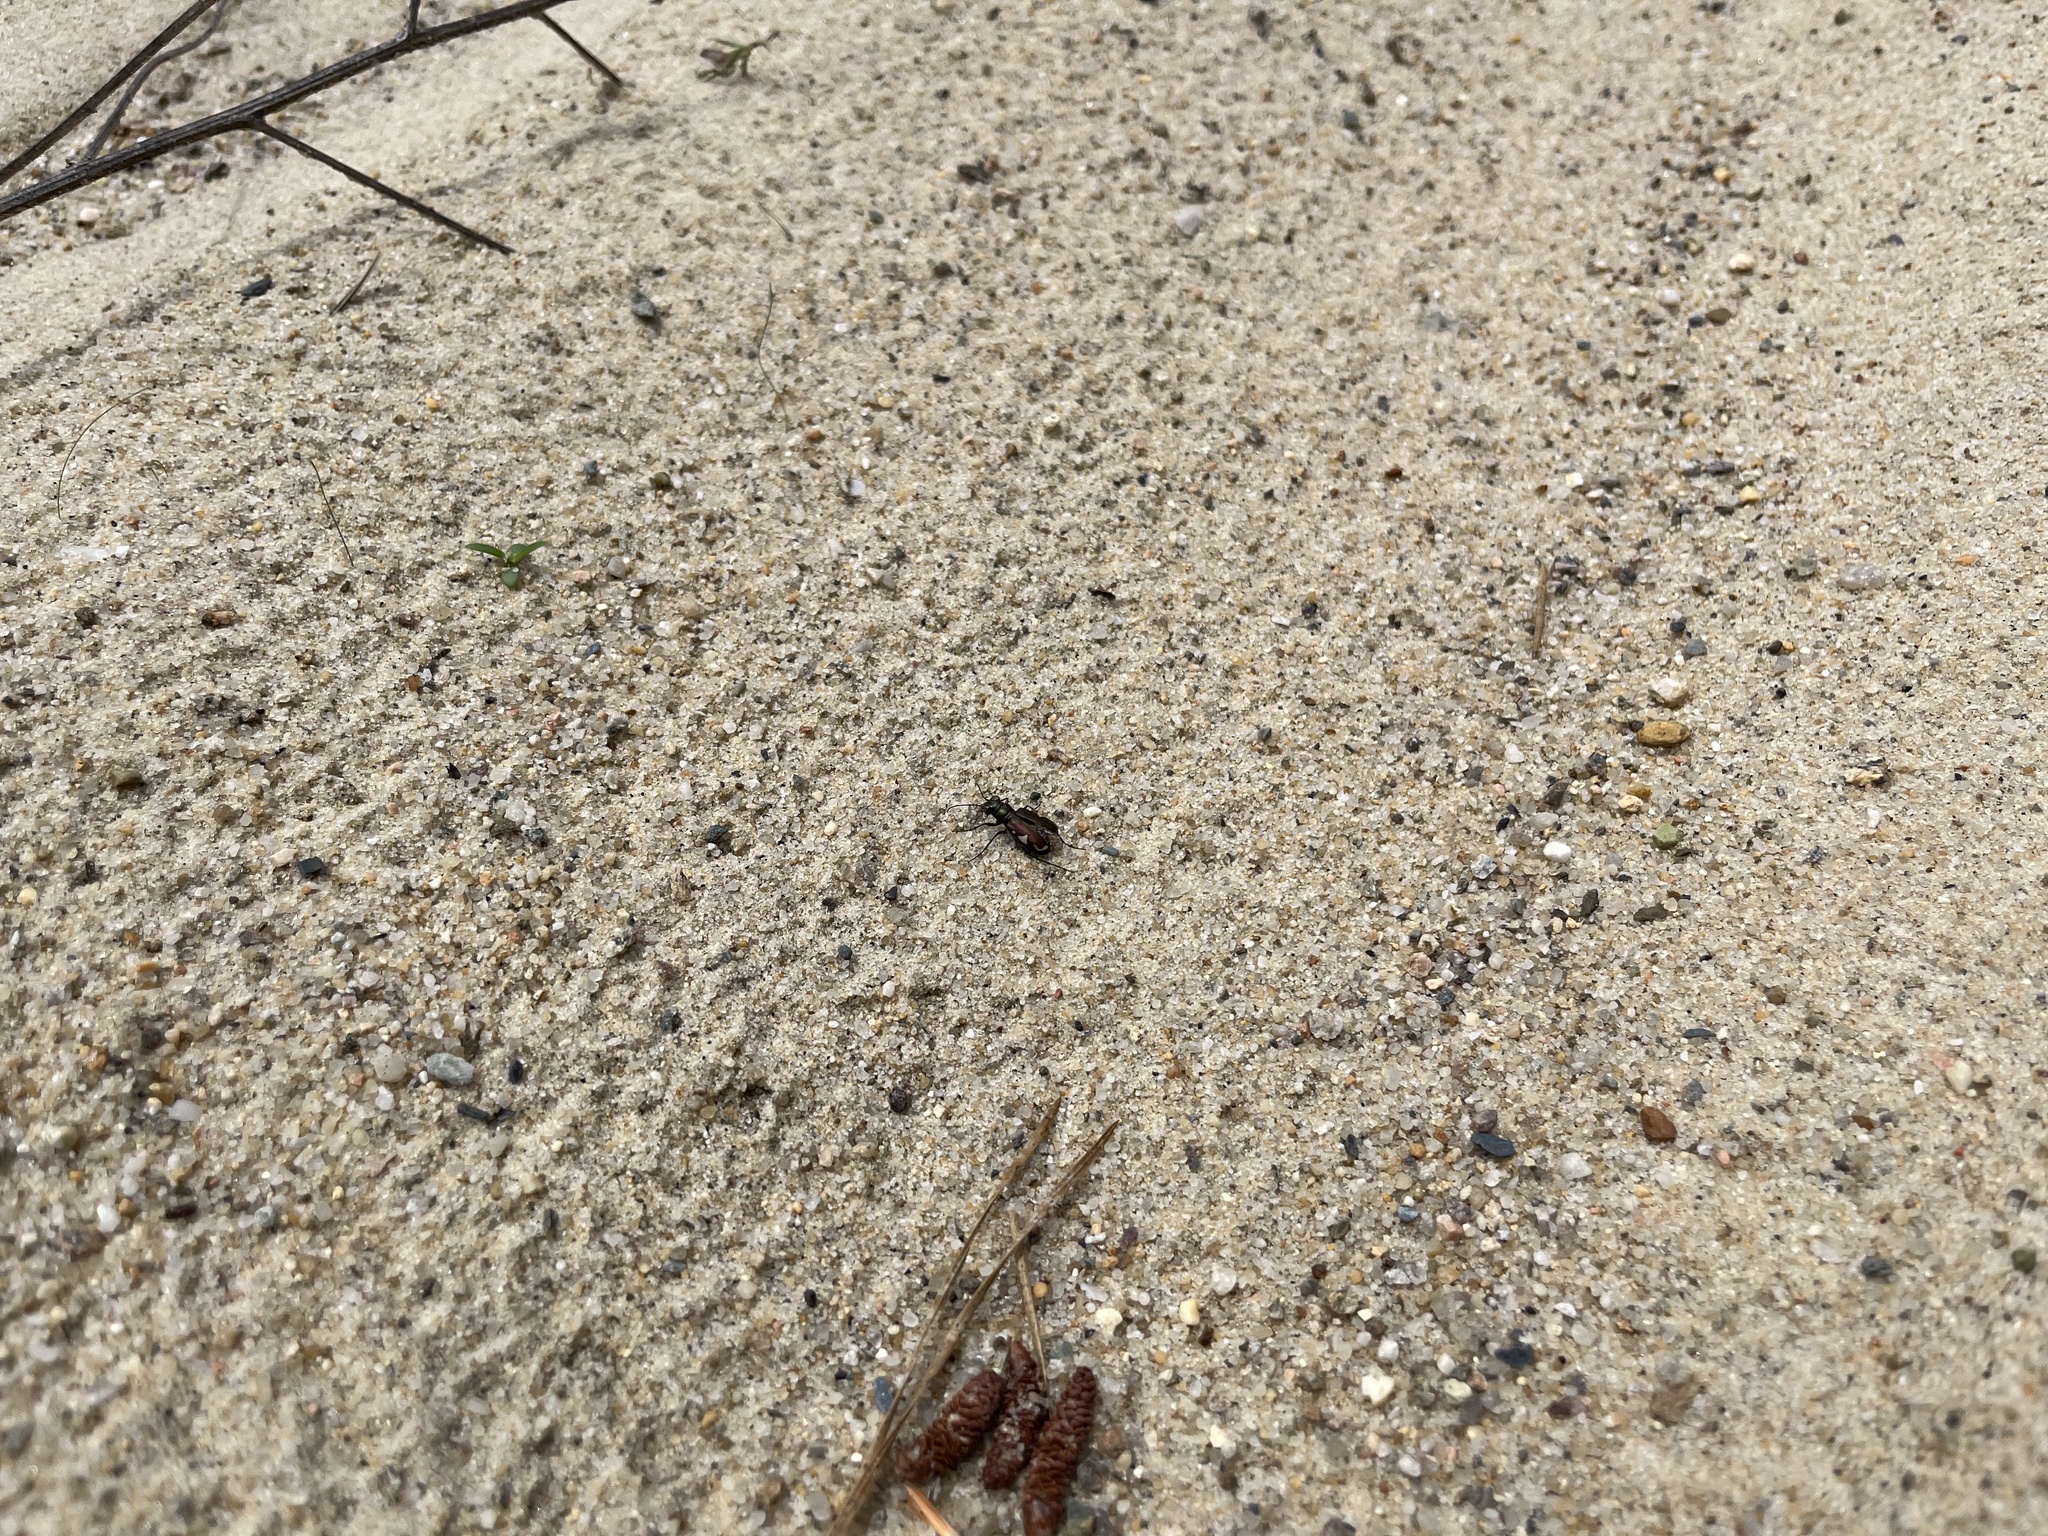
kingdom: Animalia
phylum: Arthropoda
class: Insecta
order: Coleoptera
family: Carabidae
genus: Cicindela
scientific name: Cicindela scutellaris
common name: Festive tiger beetle
